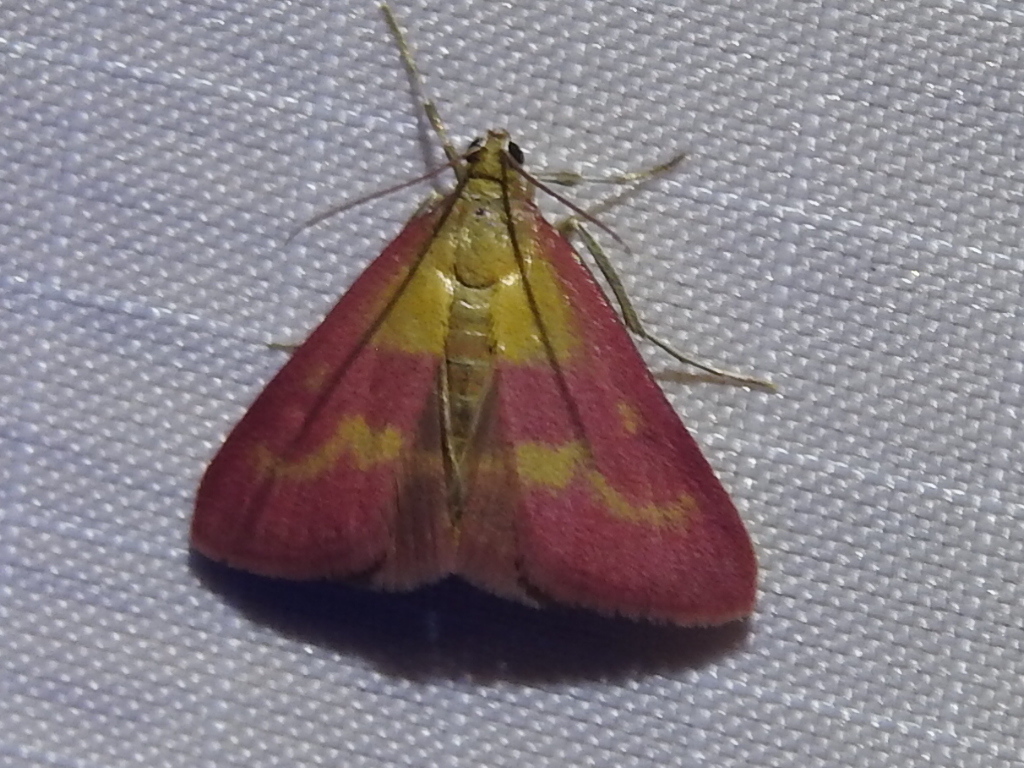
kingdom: Animalia
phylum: Arthropoda
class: Insecta
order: Lepidoptera
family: Crambidae
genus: Pyrausta
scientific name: Pyrausta laticlavia
